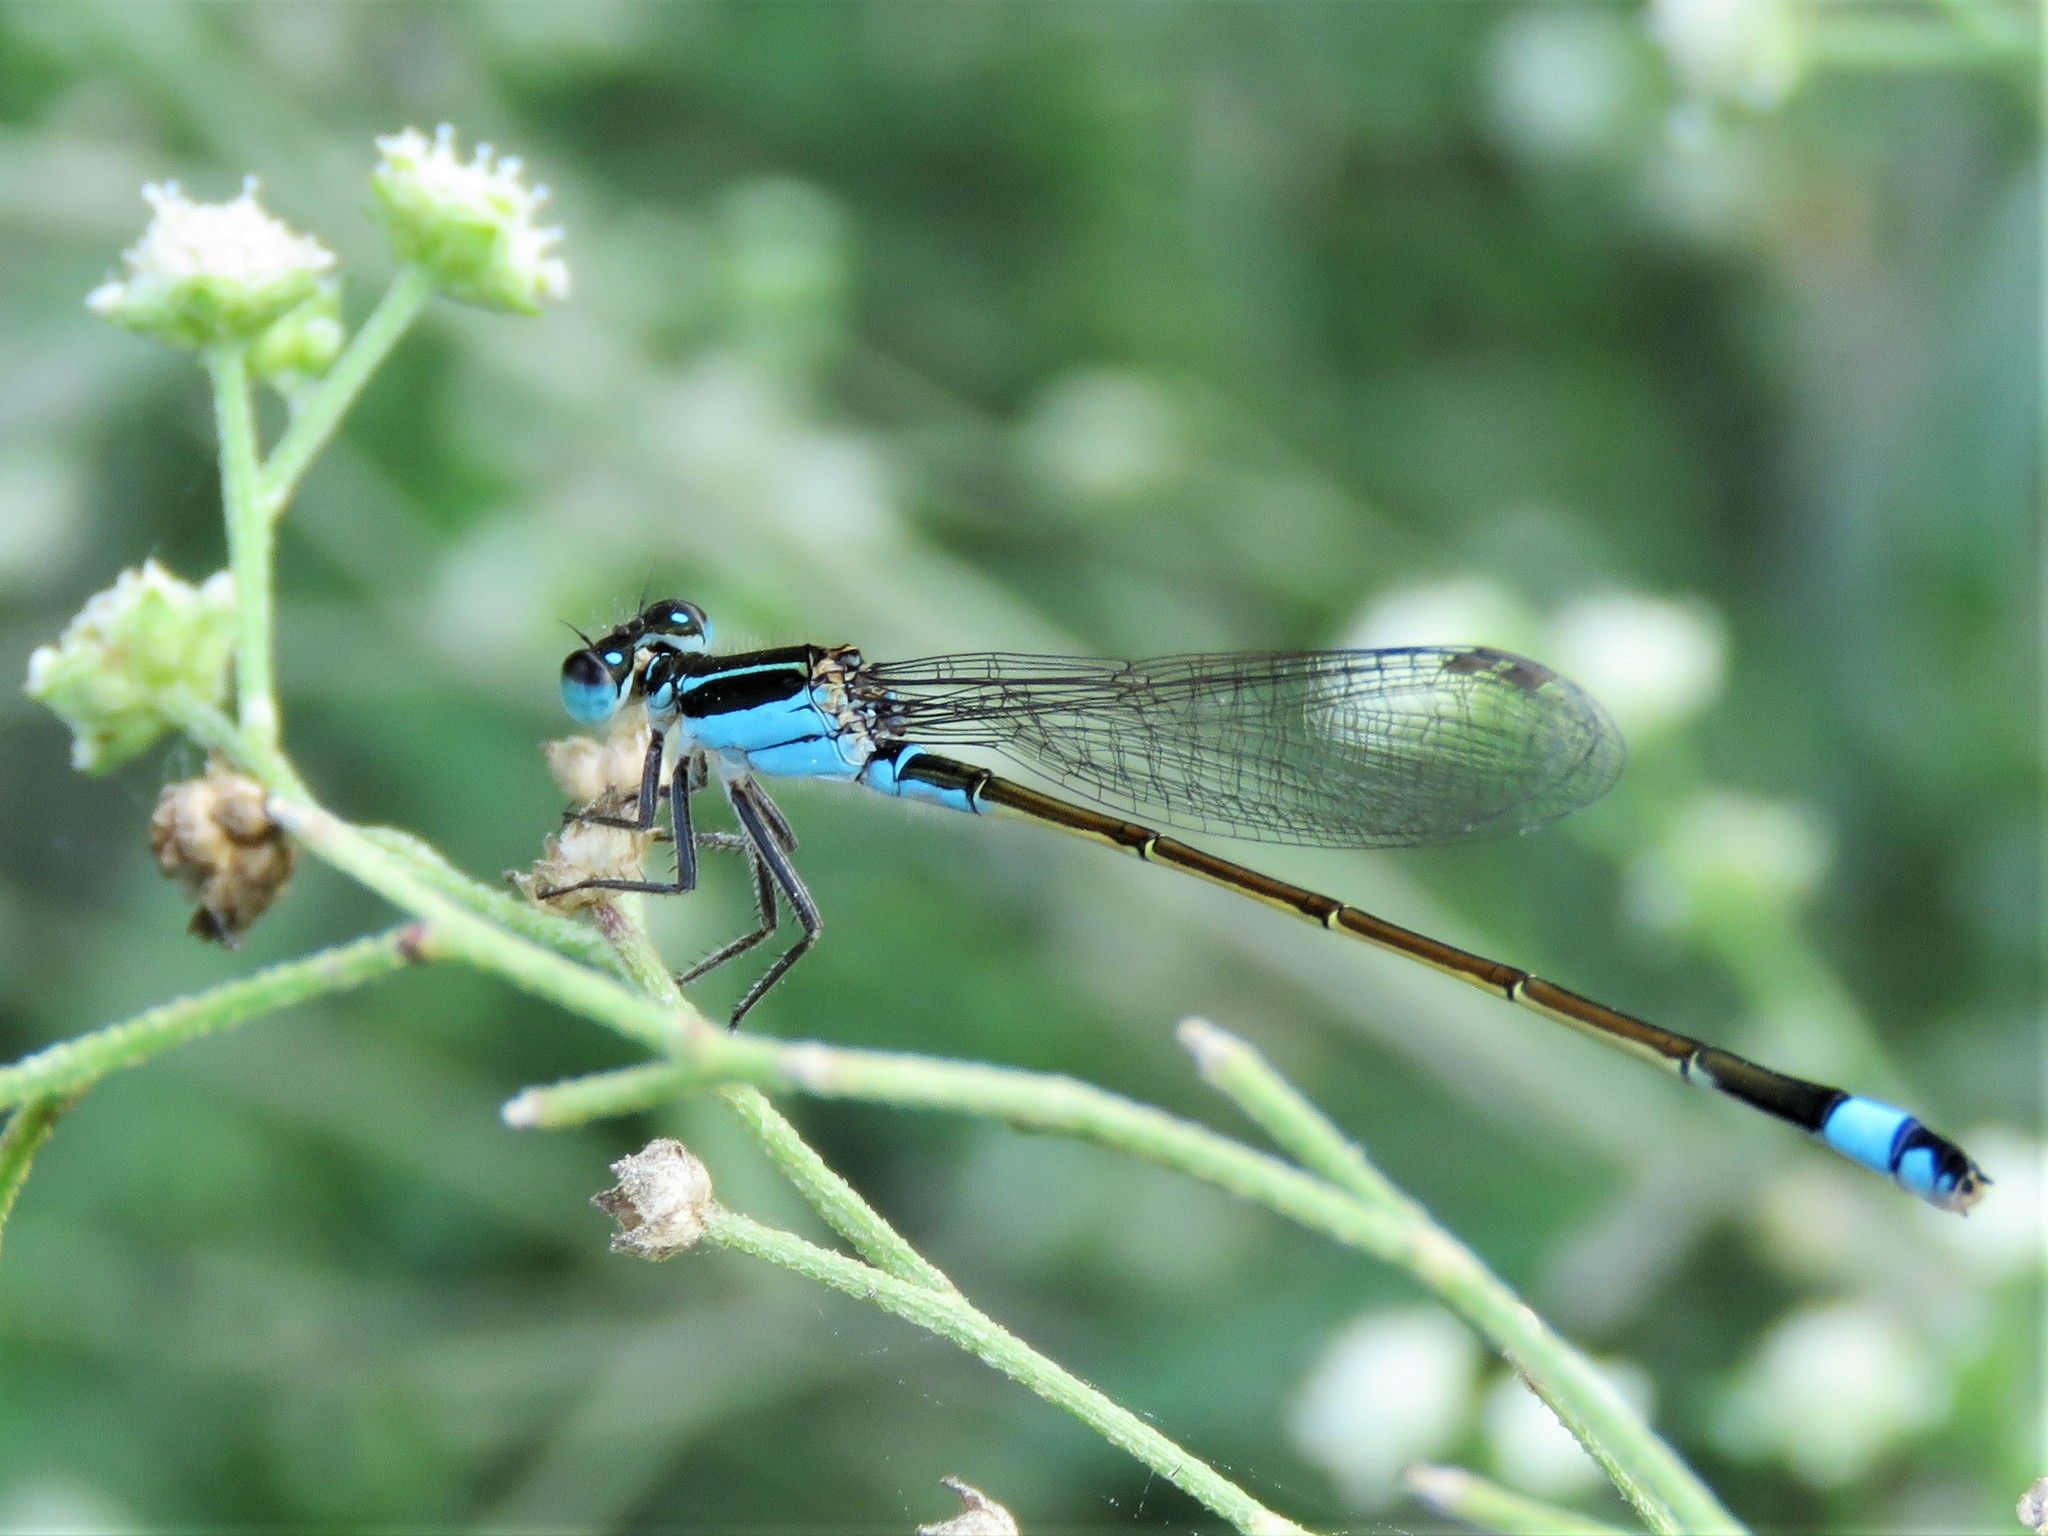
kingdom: Animalia
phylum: Arthropoda
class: Insecta
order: Odonata
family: Coenagrionidae
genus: Ischnura
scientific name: Ischnura ramburii
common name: Rambur's forktail
